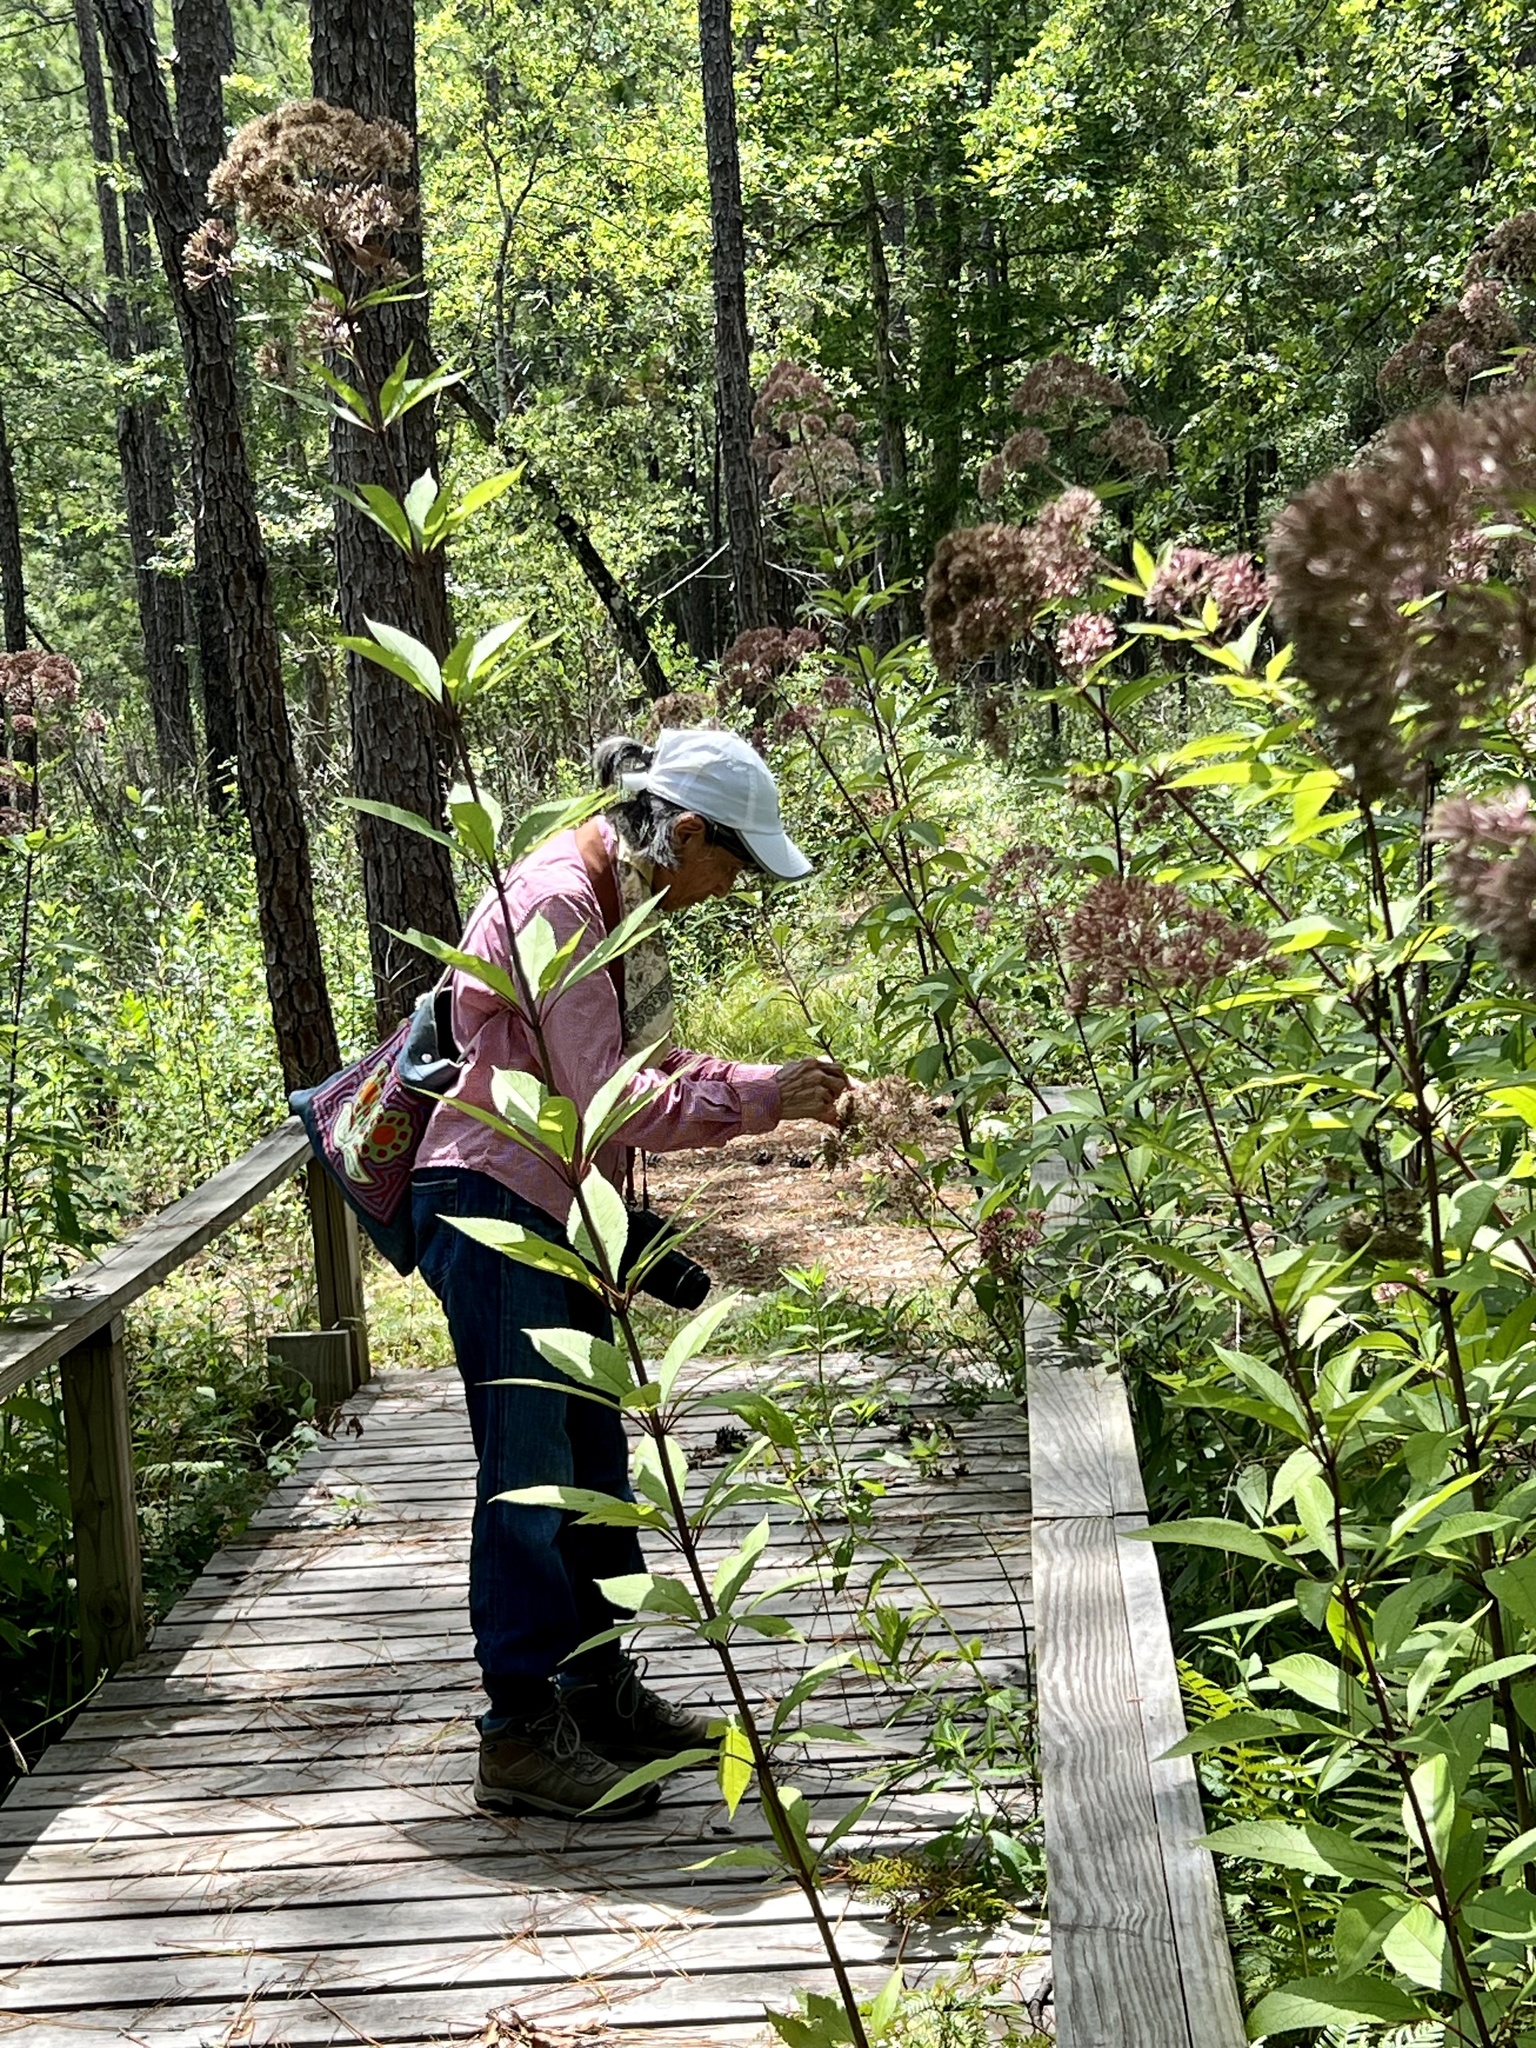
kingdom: Plantae
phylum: Tracheophyta
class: Magnoliopsida
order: Asterales
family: Asteraceae
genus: Eutrochium
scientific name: Eutrochium fistulosum
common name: Trumpetweed
